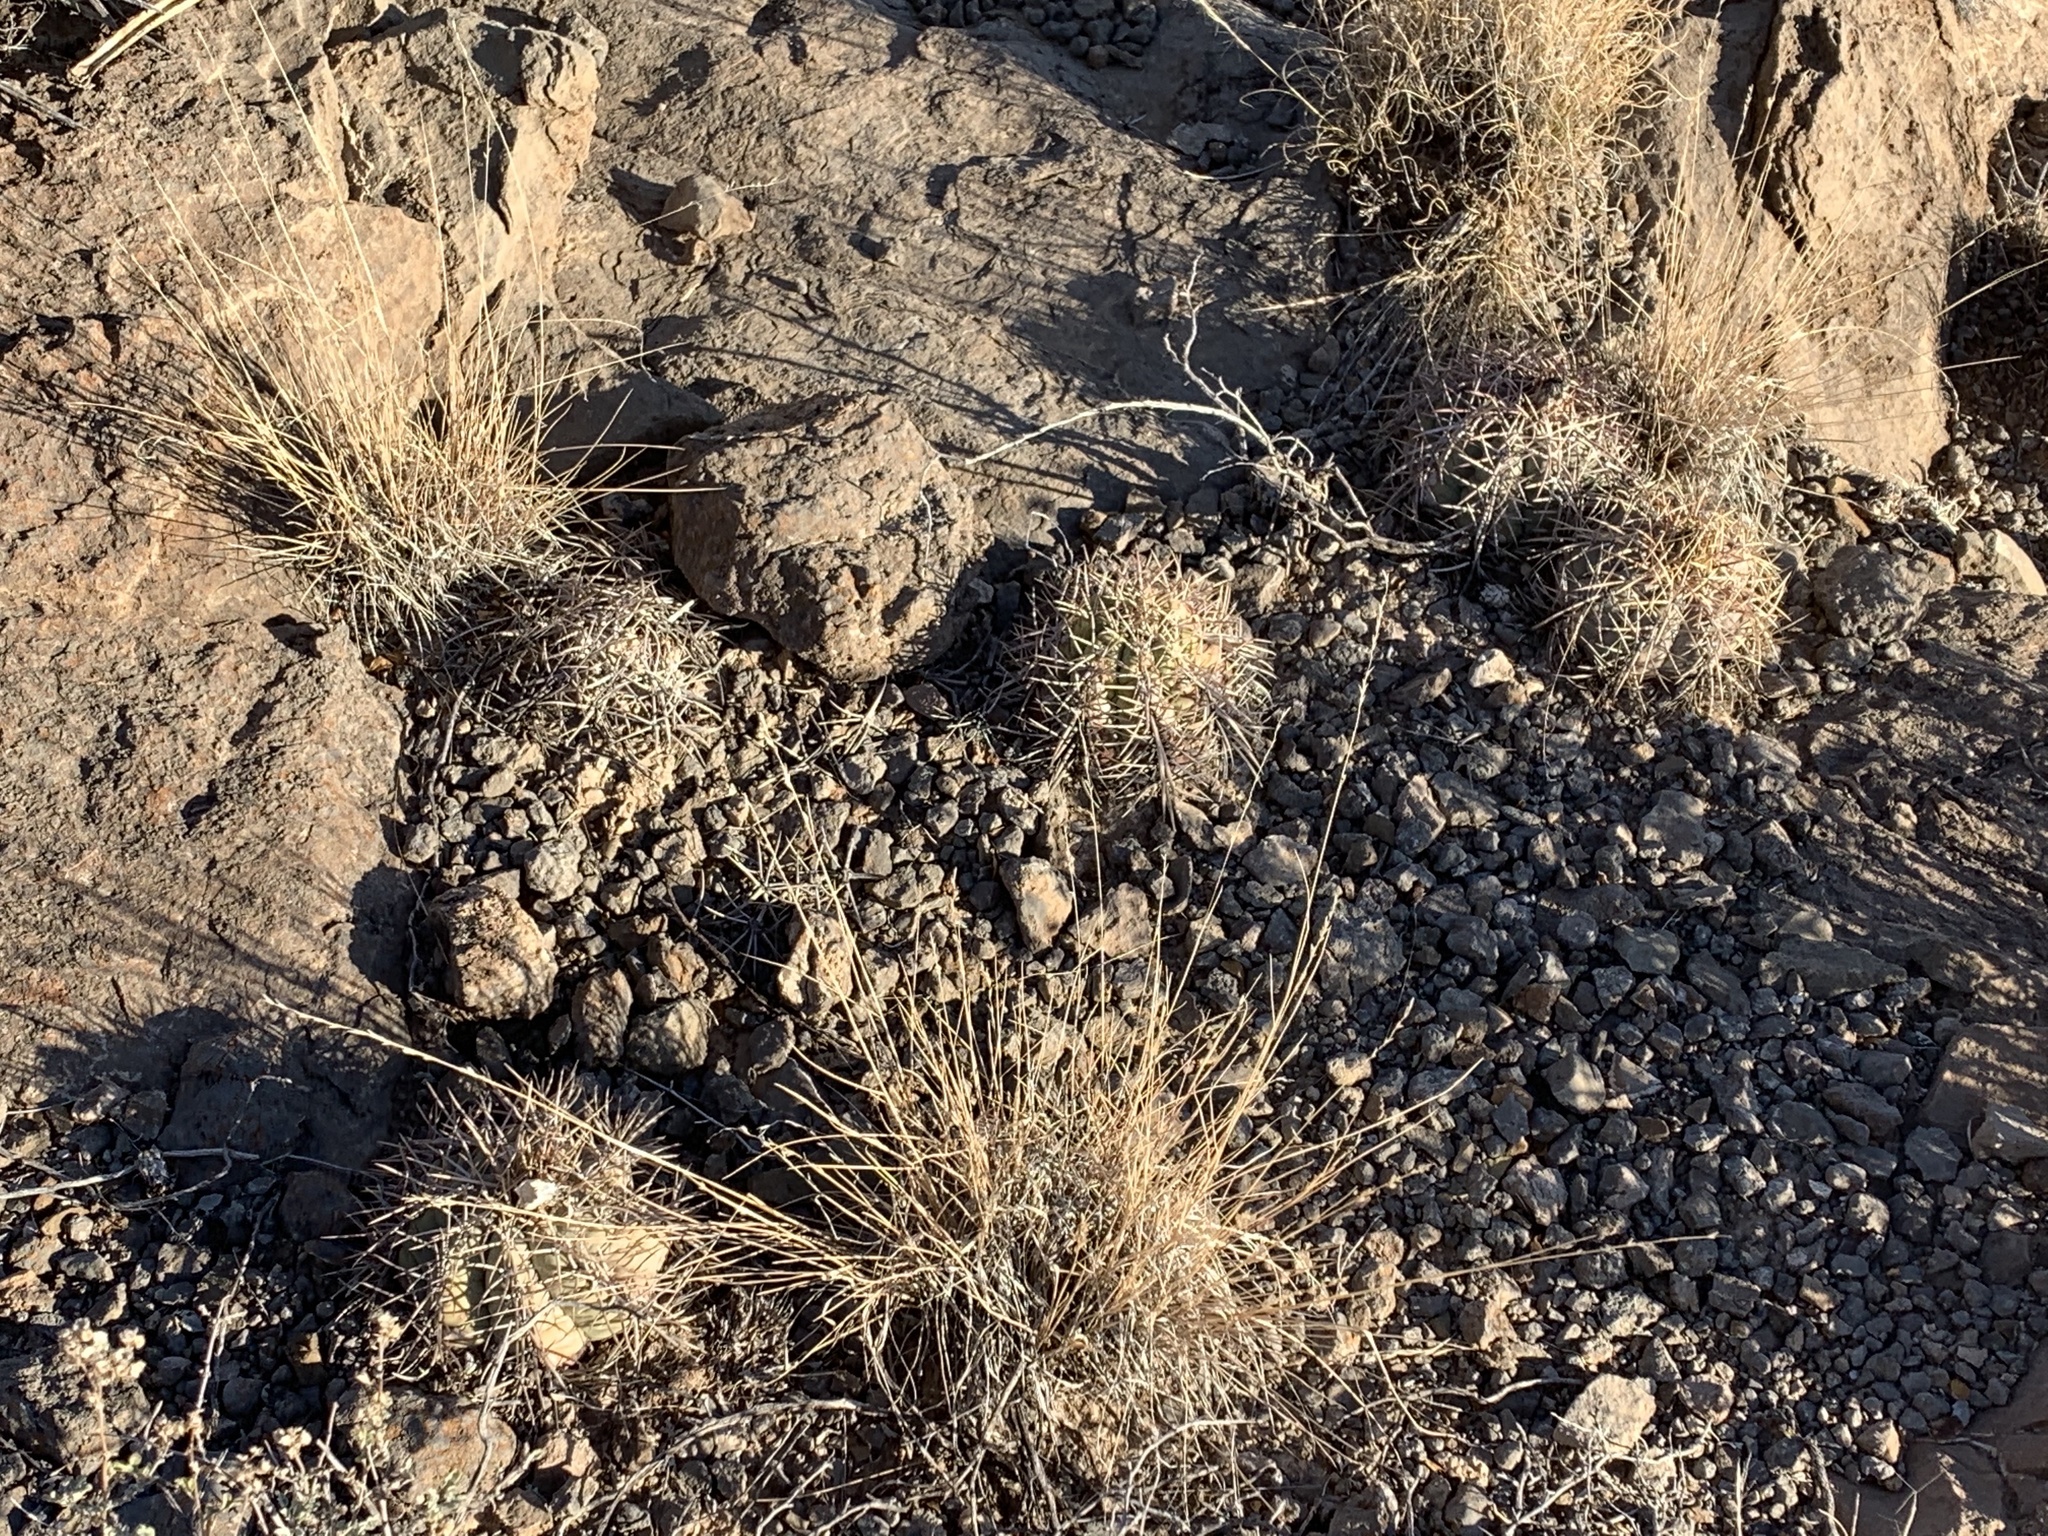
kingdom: Plantae
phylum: Tracheophyta
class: Magnoliopsida
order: Caryophyllales
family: Cactaceae
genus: Echinocactus
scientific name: Echinocactus horizonthalonius
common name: Devilshead
